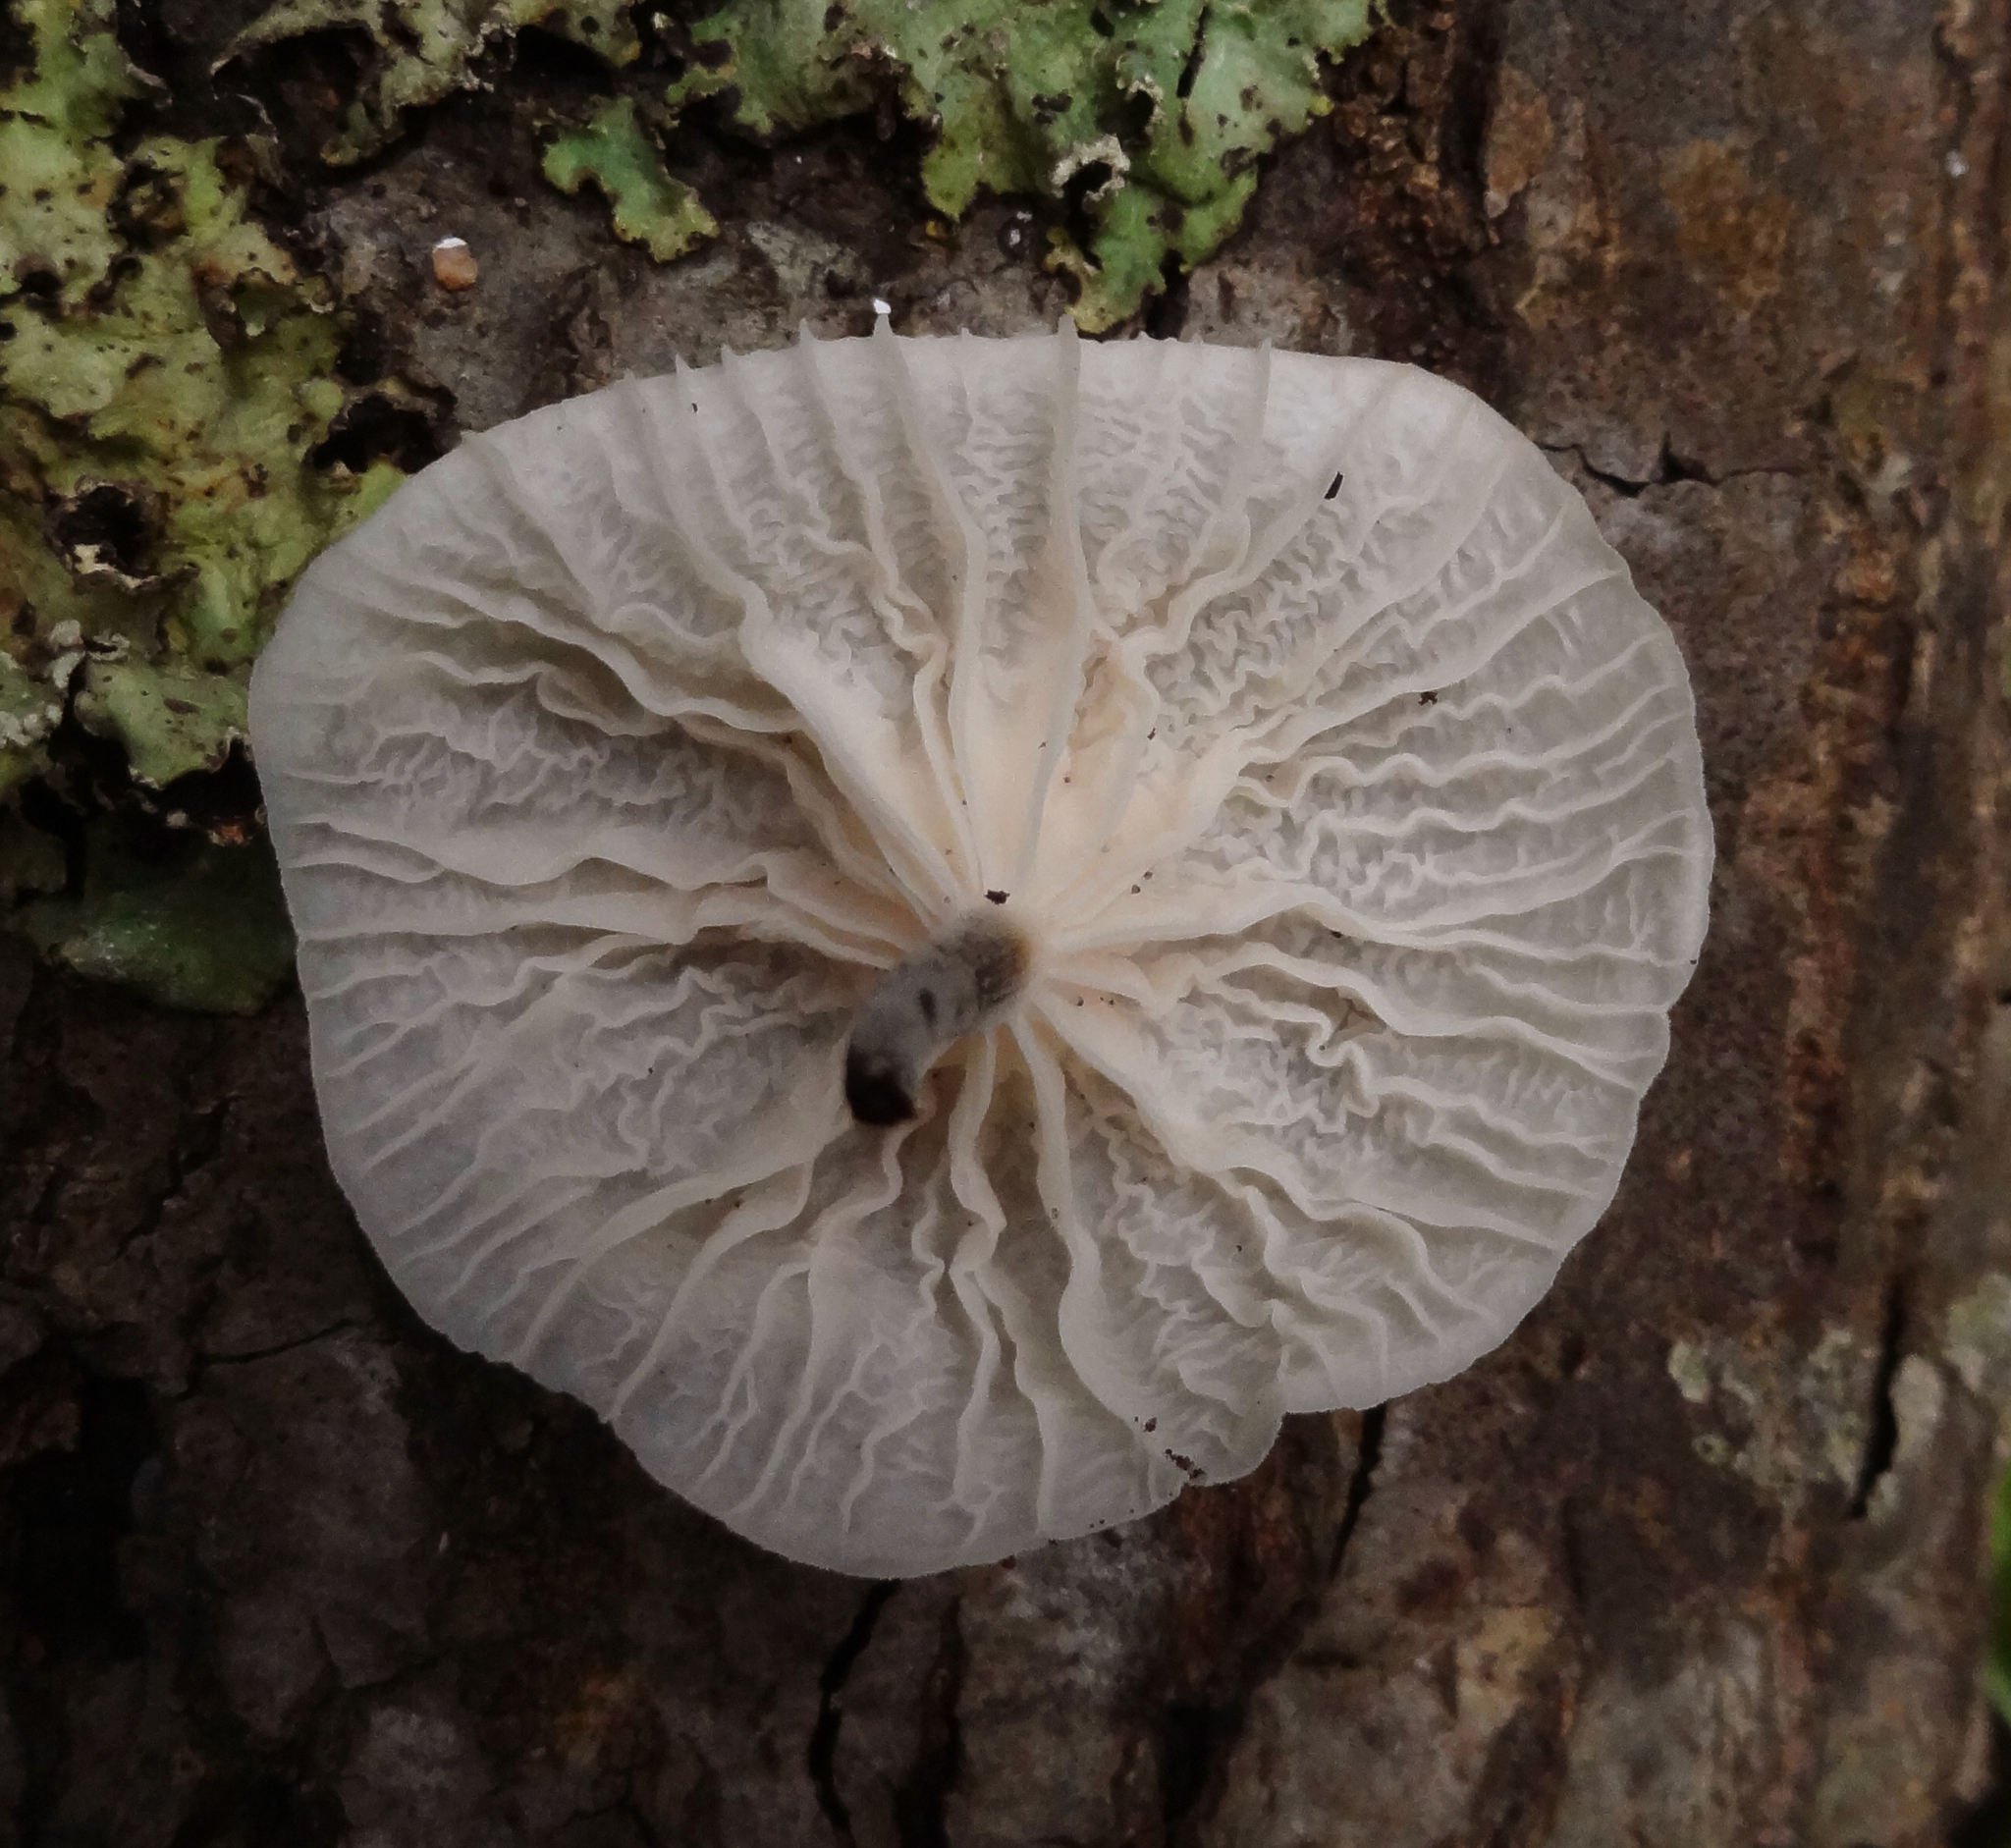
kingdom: Fungi
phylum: Basidiomycota
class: Agaricomycetes
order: Agaricales
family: Omphalotaceae
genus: Marasmiellus
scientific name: Marasmiellus candidus
